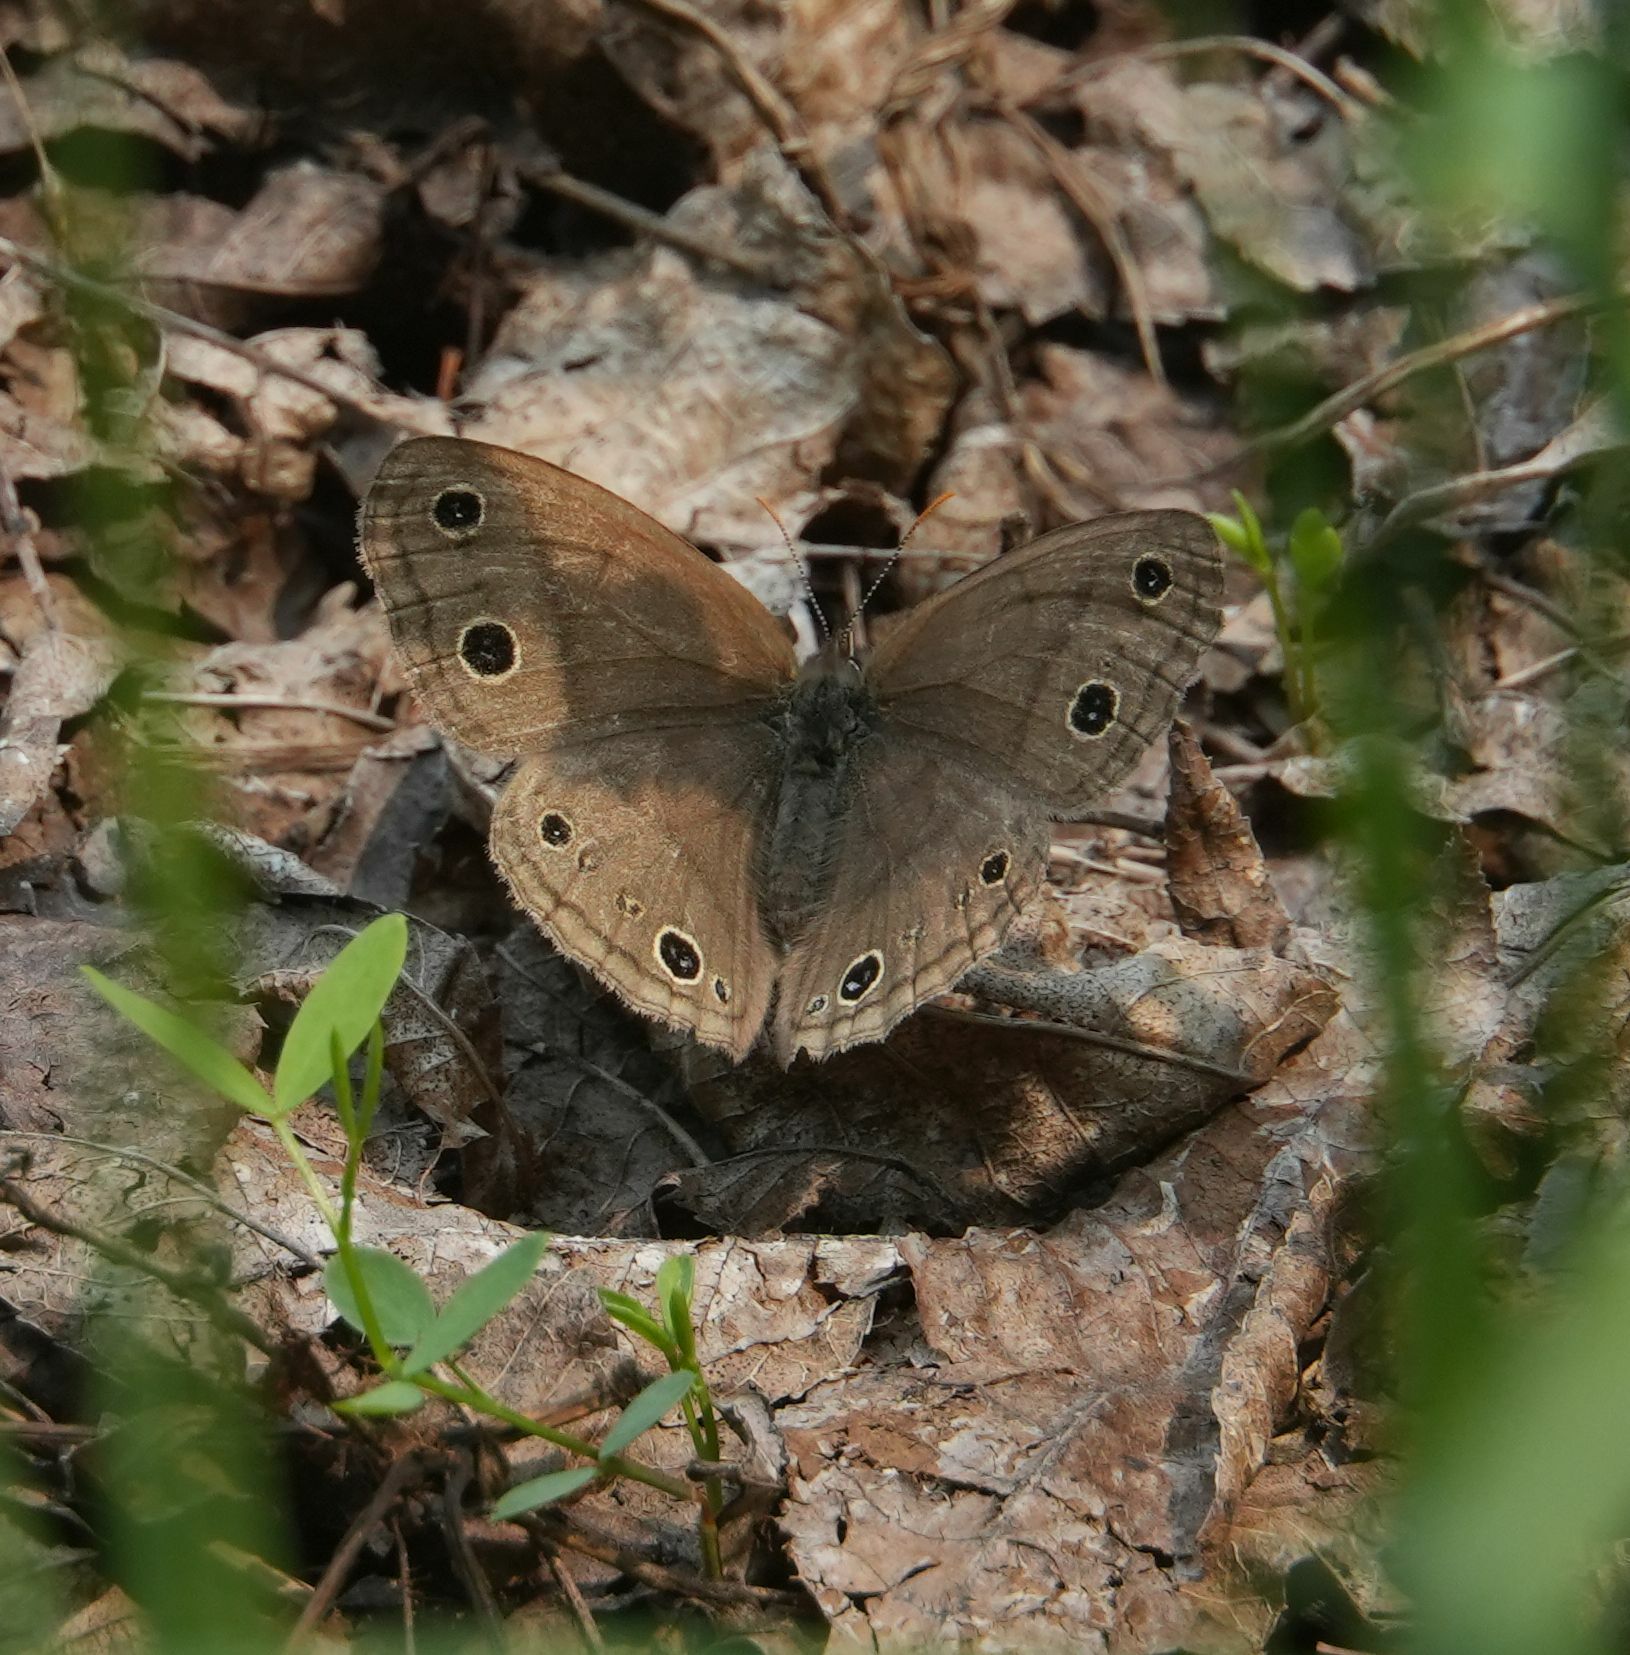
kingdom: Animalia
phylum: Arthropoda
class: Insecta
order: Lepidoptera
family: Nymphalidae
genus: Euptychia
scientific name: Euptychia cymela
